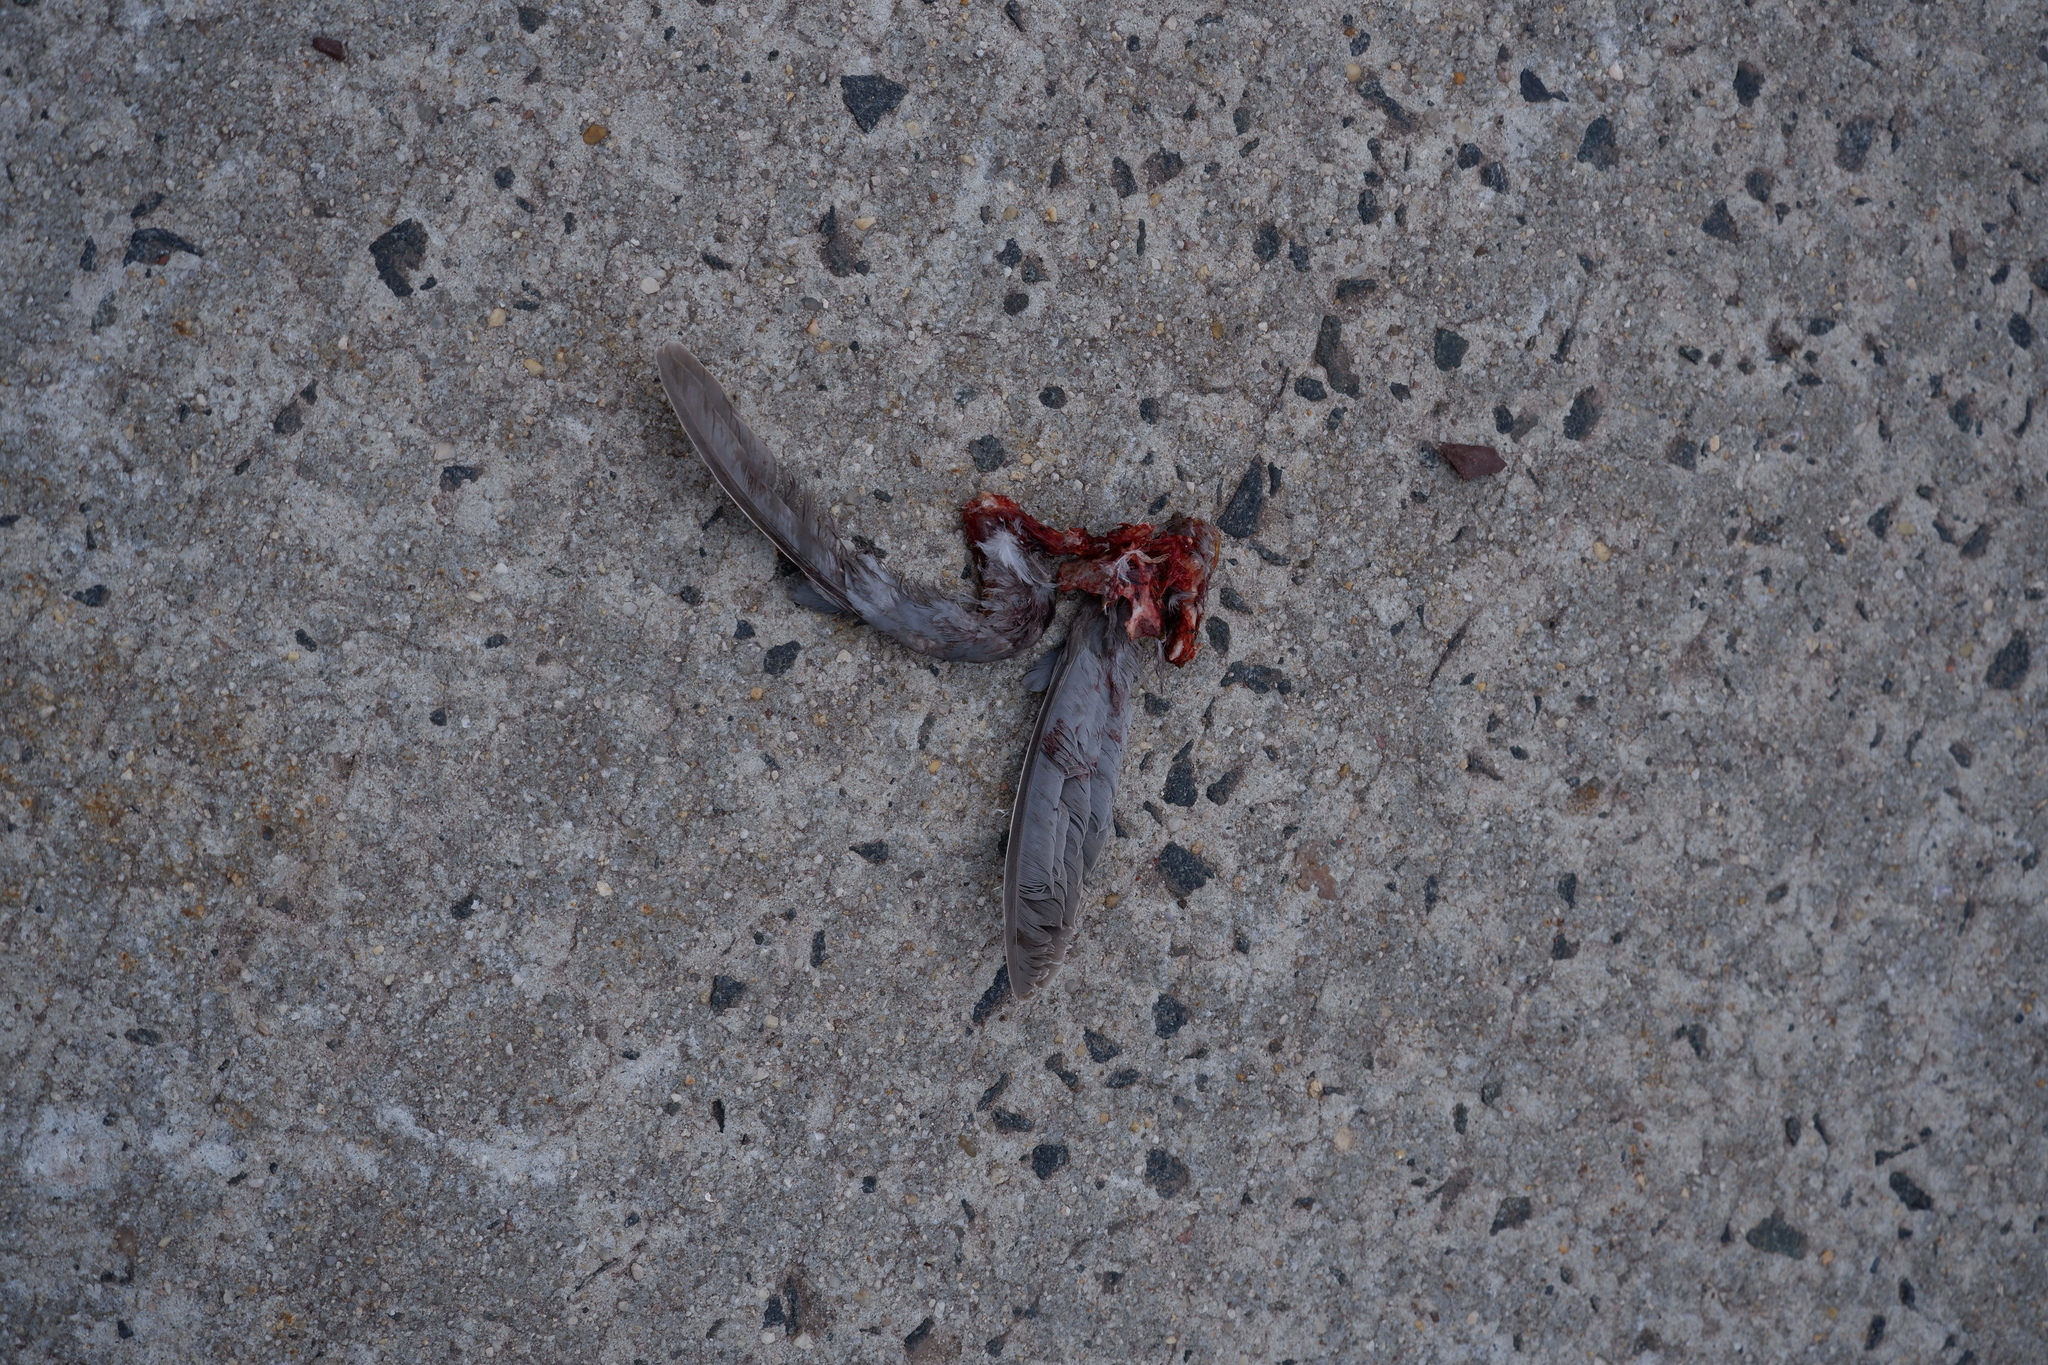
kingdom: Animalia
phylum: Chordata
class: Aves
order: Columbiformes
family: Columbidae
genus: Zenaida
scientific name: Zenaida macroura
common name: Mourning dove
